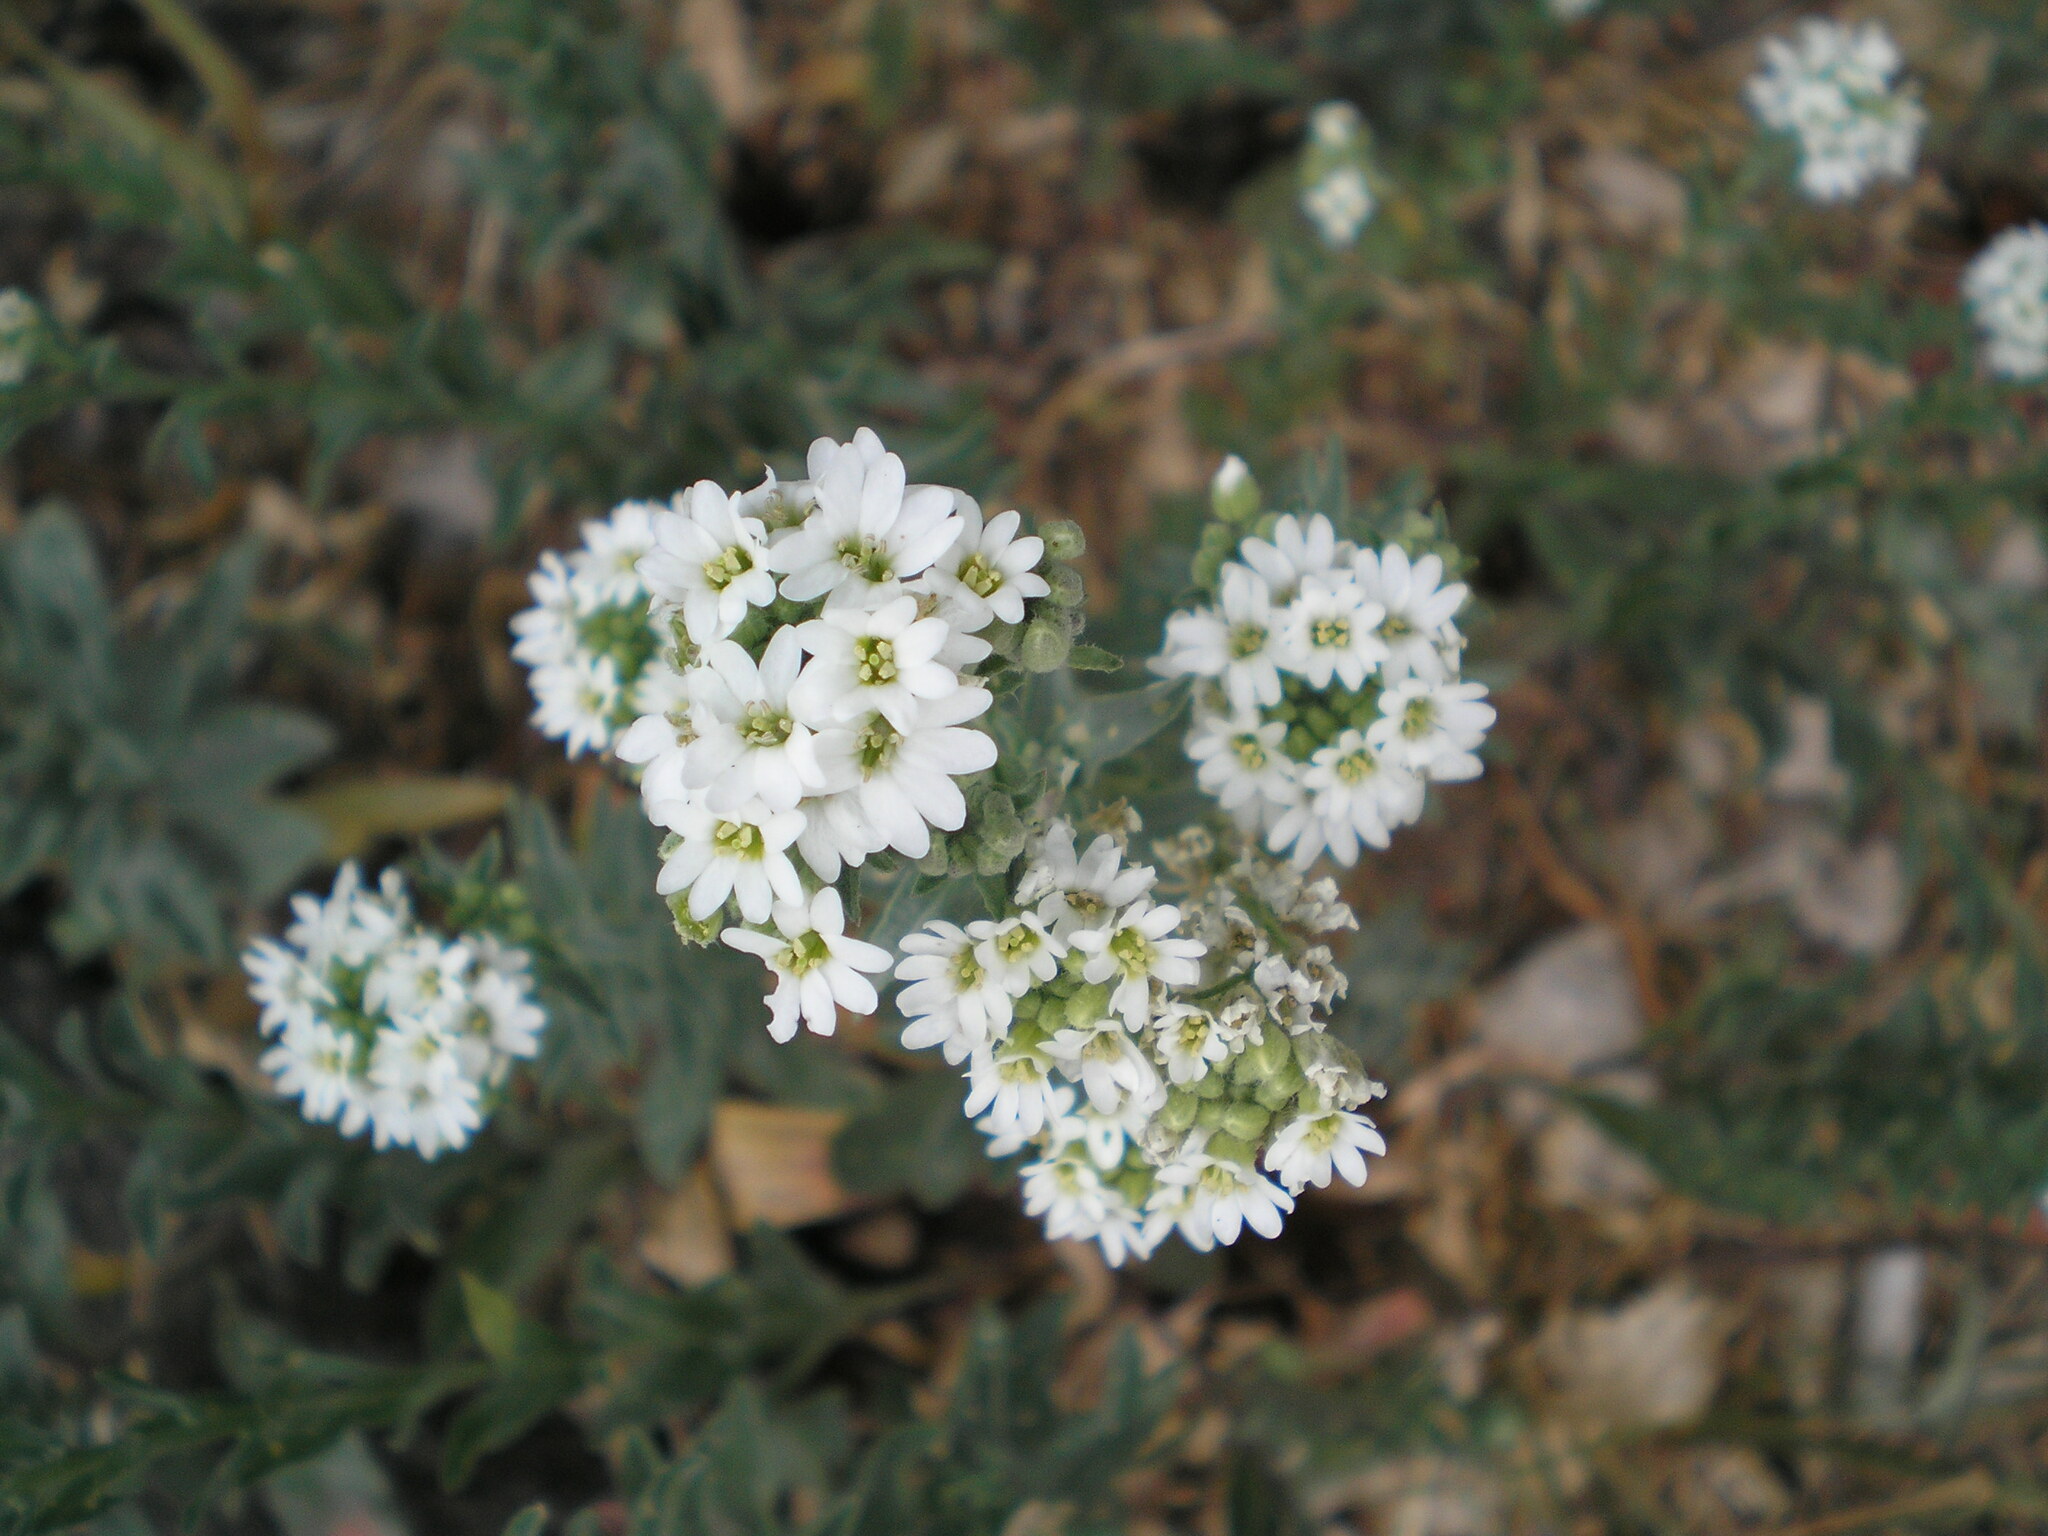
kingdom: Plantae
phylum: Tracheophyta
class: Magnoliopsida
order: Brassicales
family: Brassicaceae
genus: Berteroa
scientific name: Berteroa incana
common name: Hoary alison
